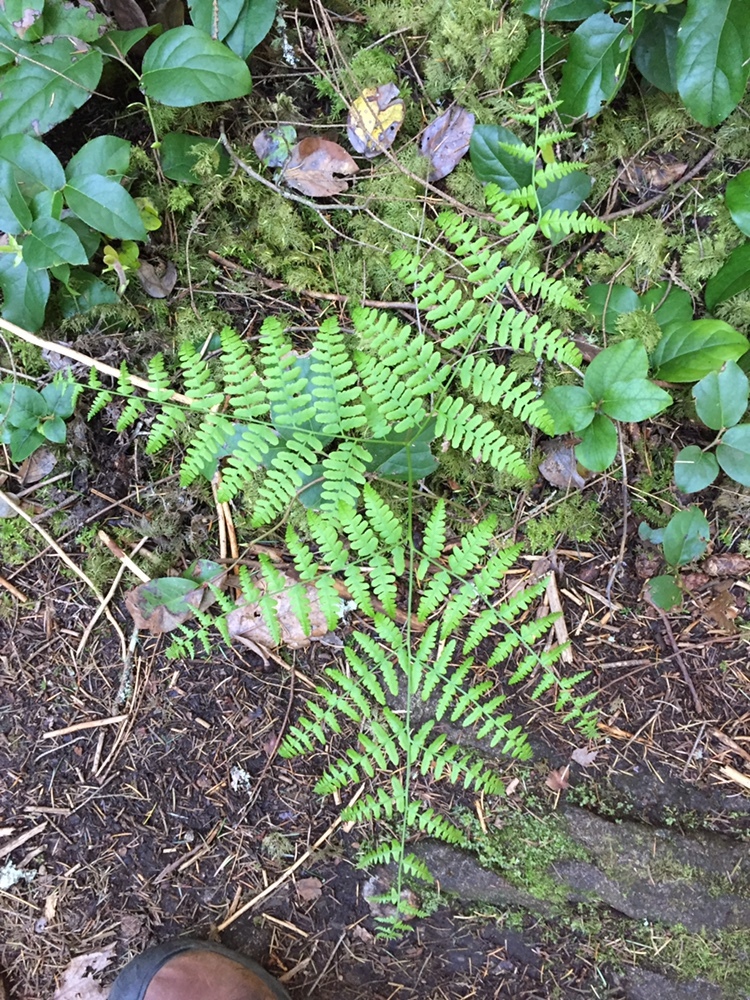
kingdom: Plantae
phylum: Tracheophyta
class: Polypodiopsida
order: Polypodiales
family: Dennstaedtiaceae
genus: Pteridium
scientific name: Pteridium aquilinum
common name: Bracken
